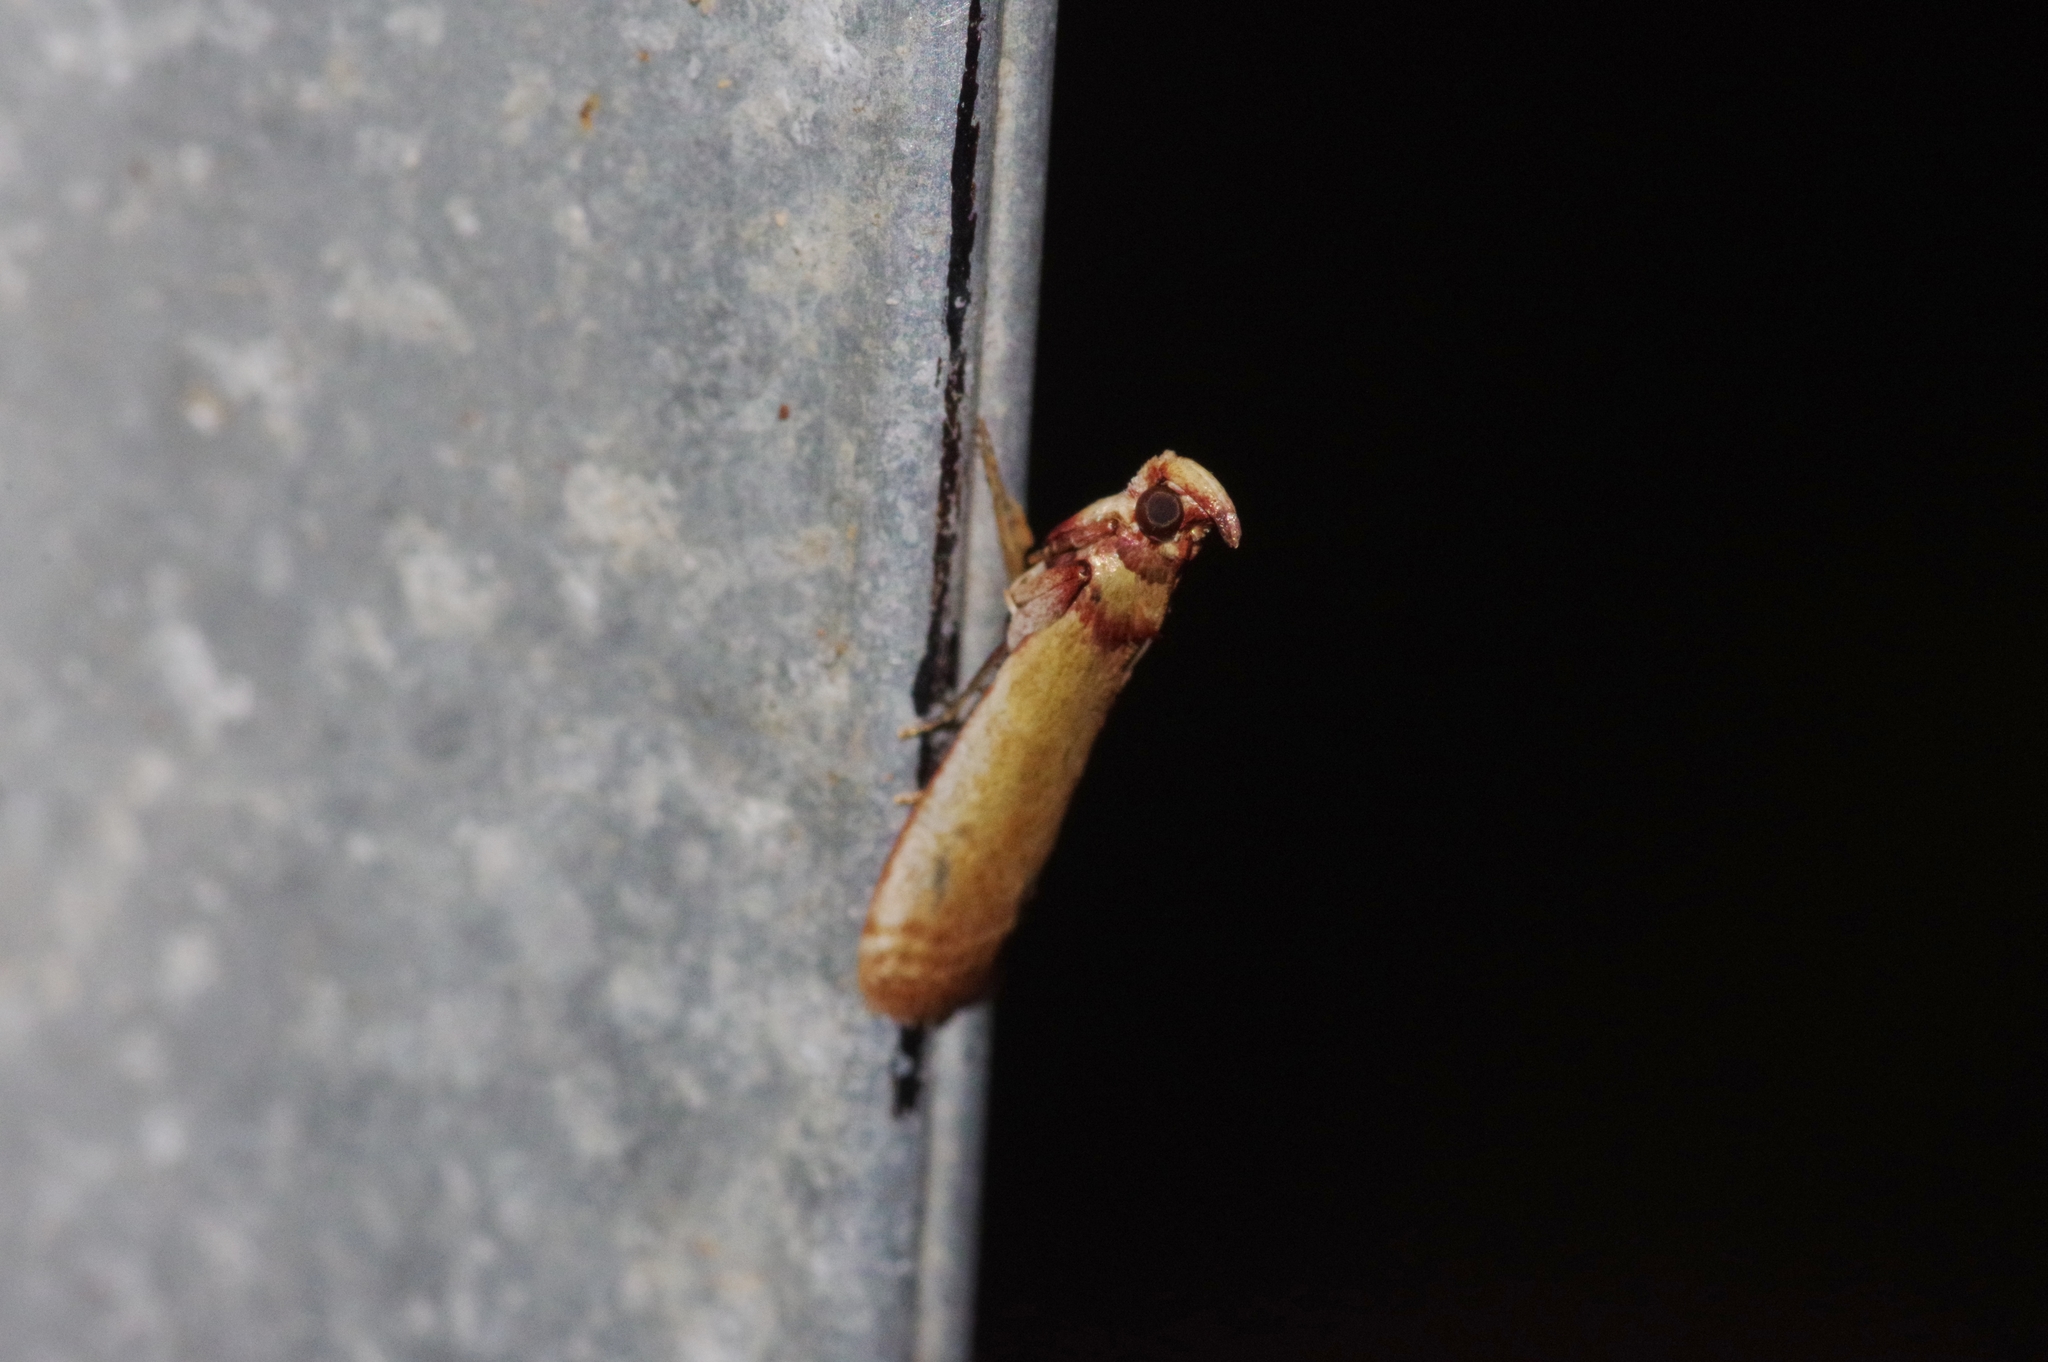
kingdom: Animalia
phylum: Arthropoda
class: Insecta
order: Lepidoptera
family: Pyralidae
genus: Volobilis
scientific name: Volobilis chloropterella
